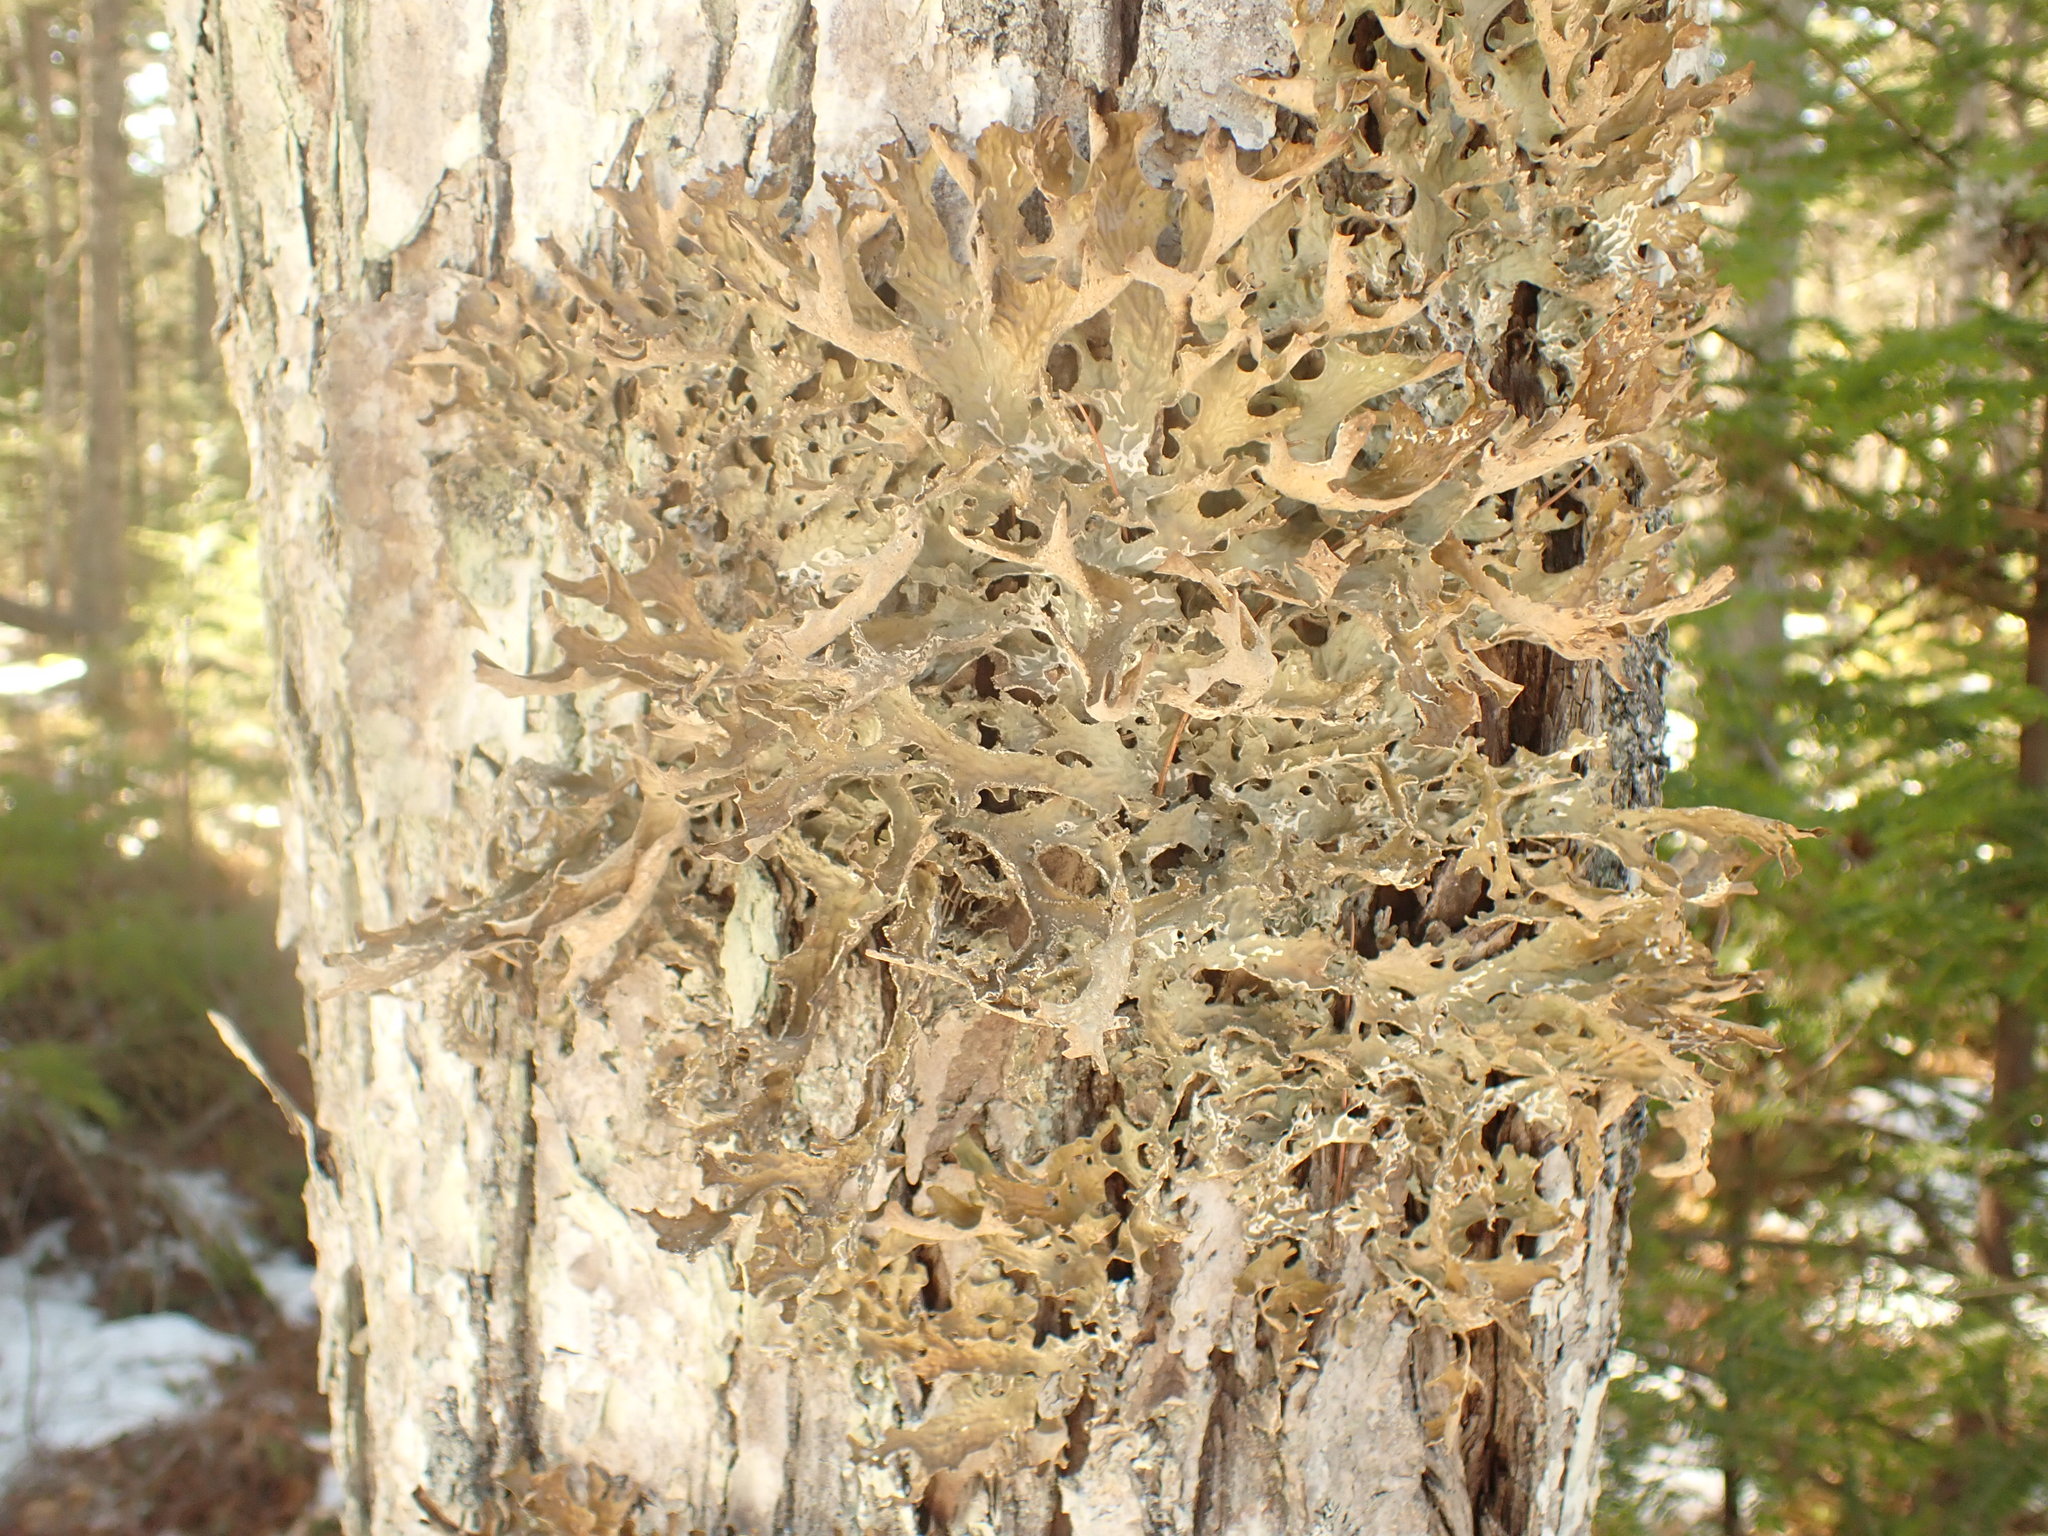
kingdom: Fungi
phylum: Ascomycota
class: Lecanoromycetes
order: Peltigerales
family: Lobariaceae
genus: Lobaria
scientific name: Lobaria pulmonaria
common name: Lungwort
